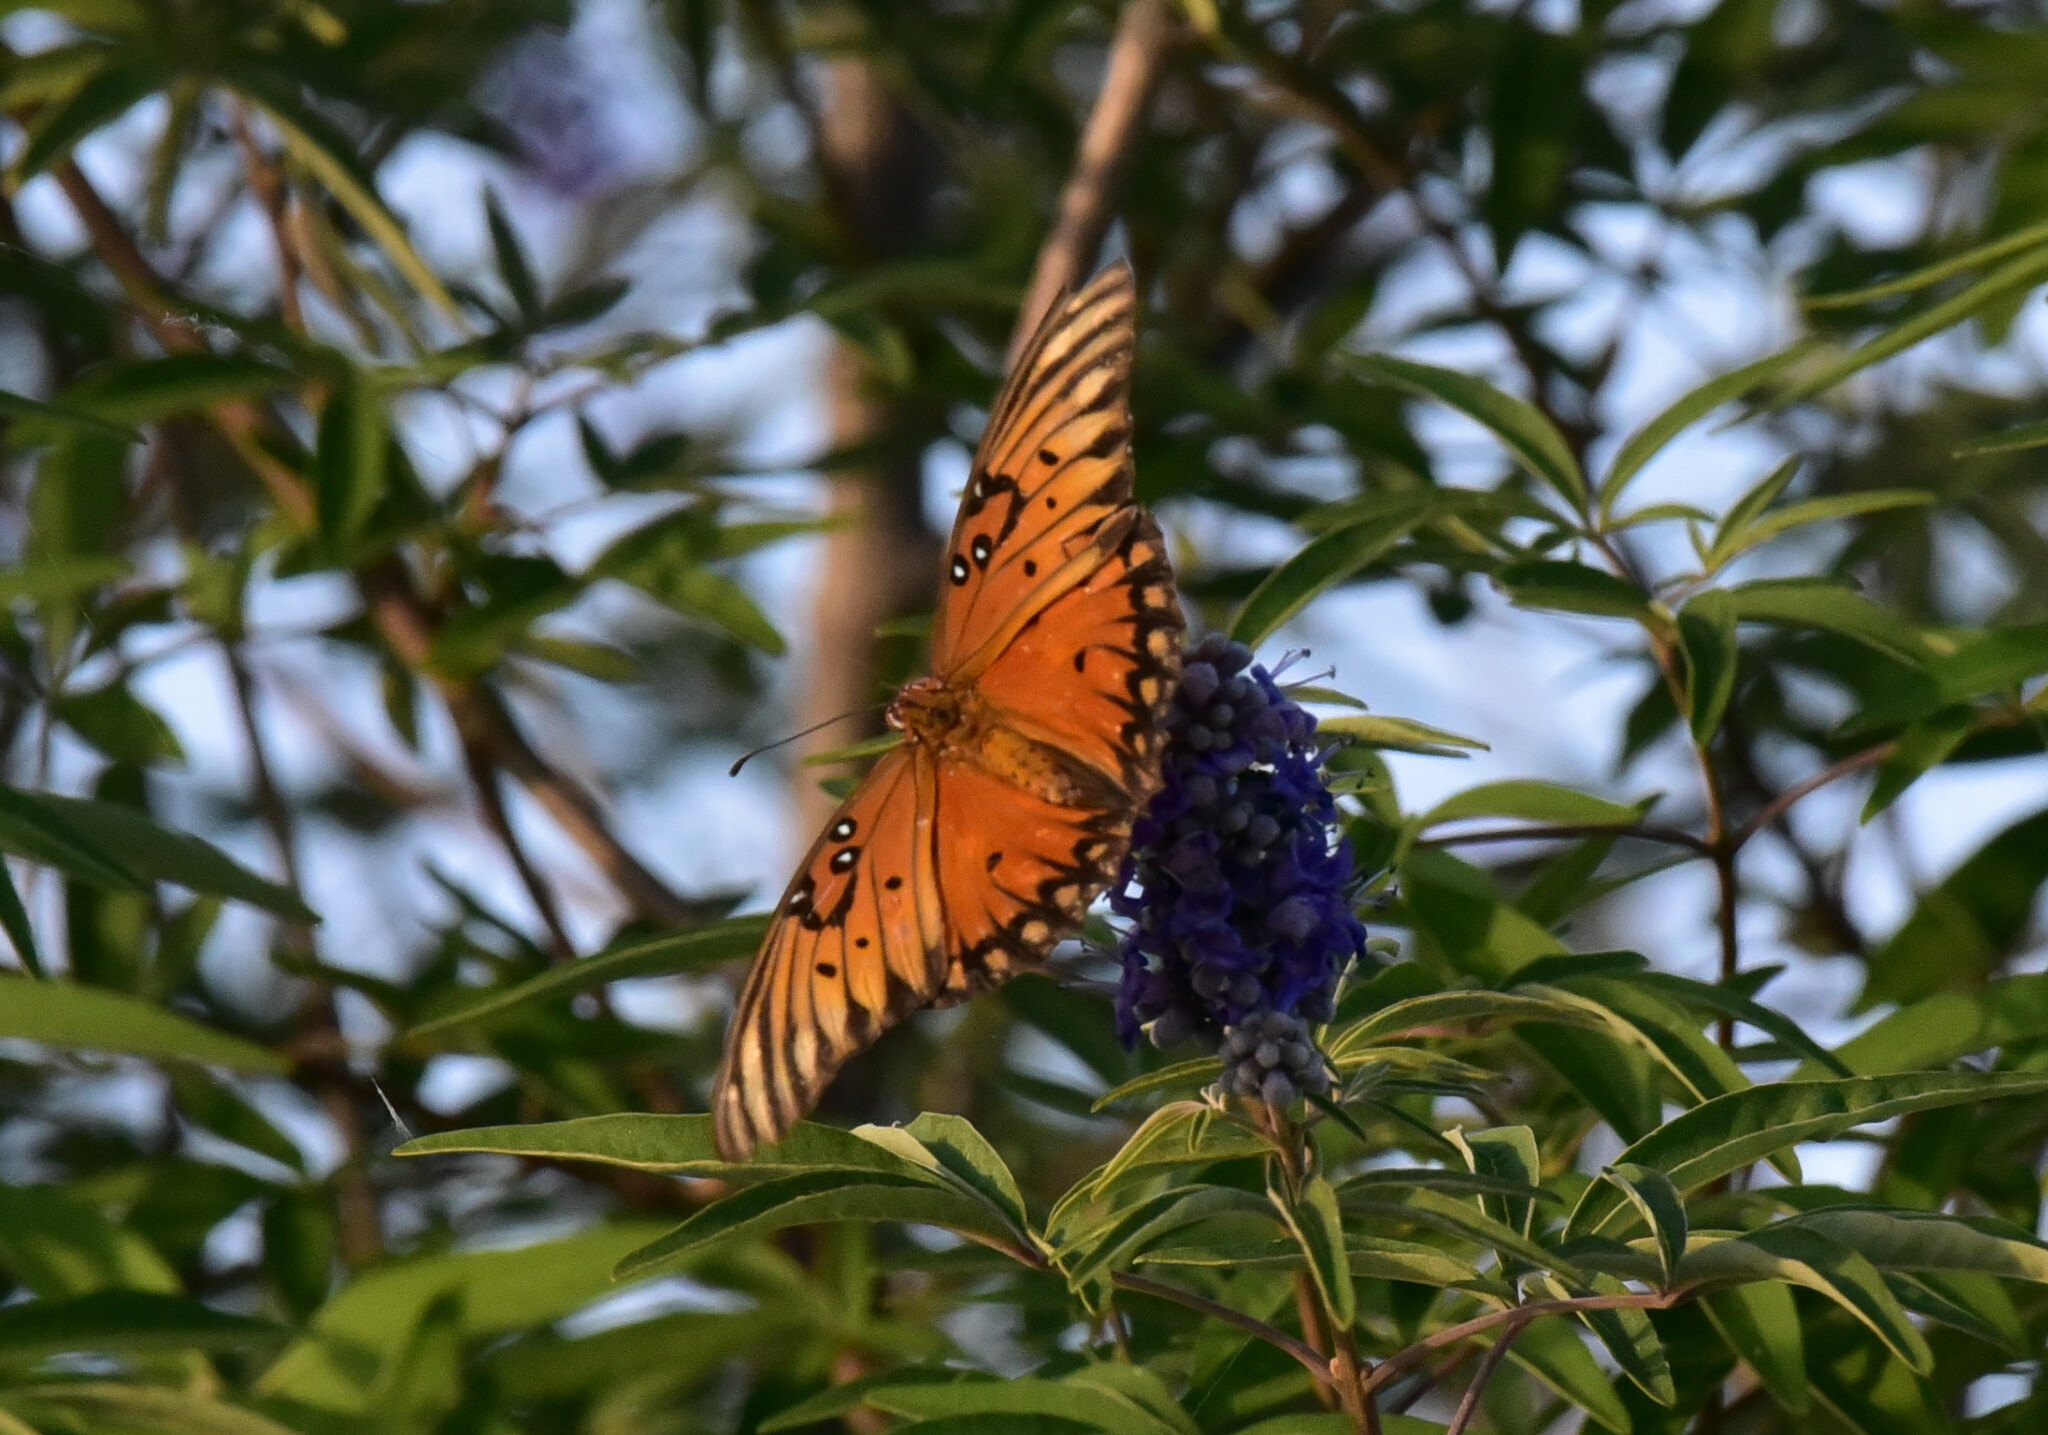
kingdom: Animalia
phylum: Arthropoda
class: Insecta
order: Lepidoptera
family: Nymphalidae
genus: Dione
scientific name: Dione vanillae
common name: Gulf fritillary
